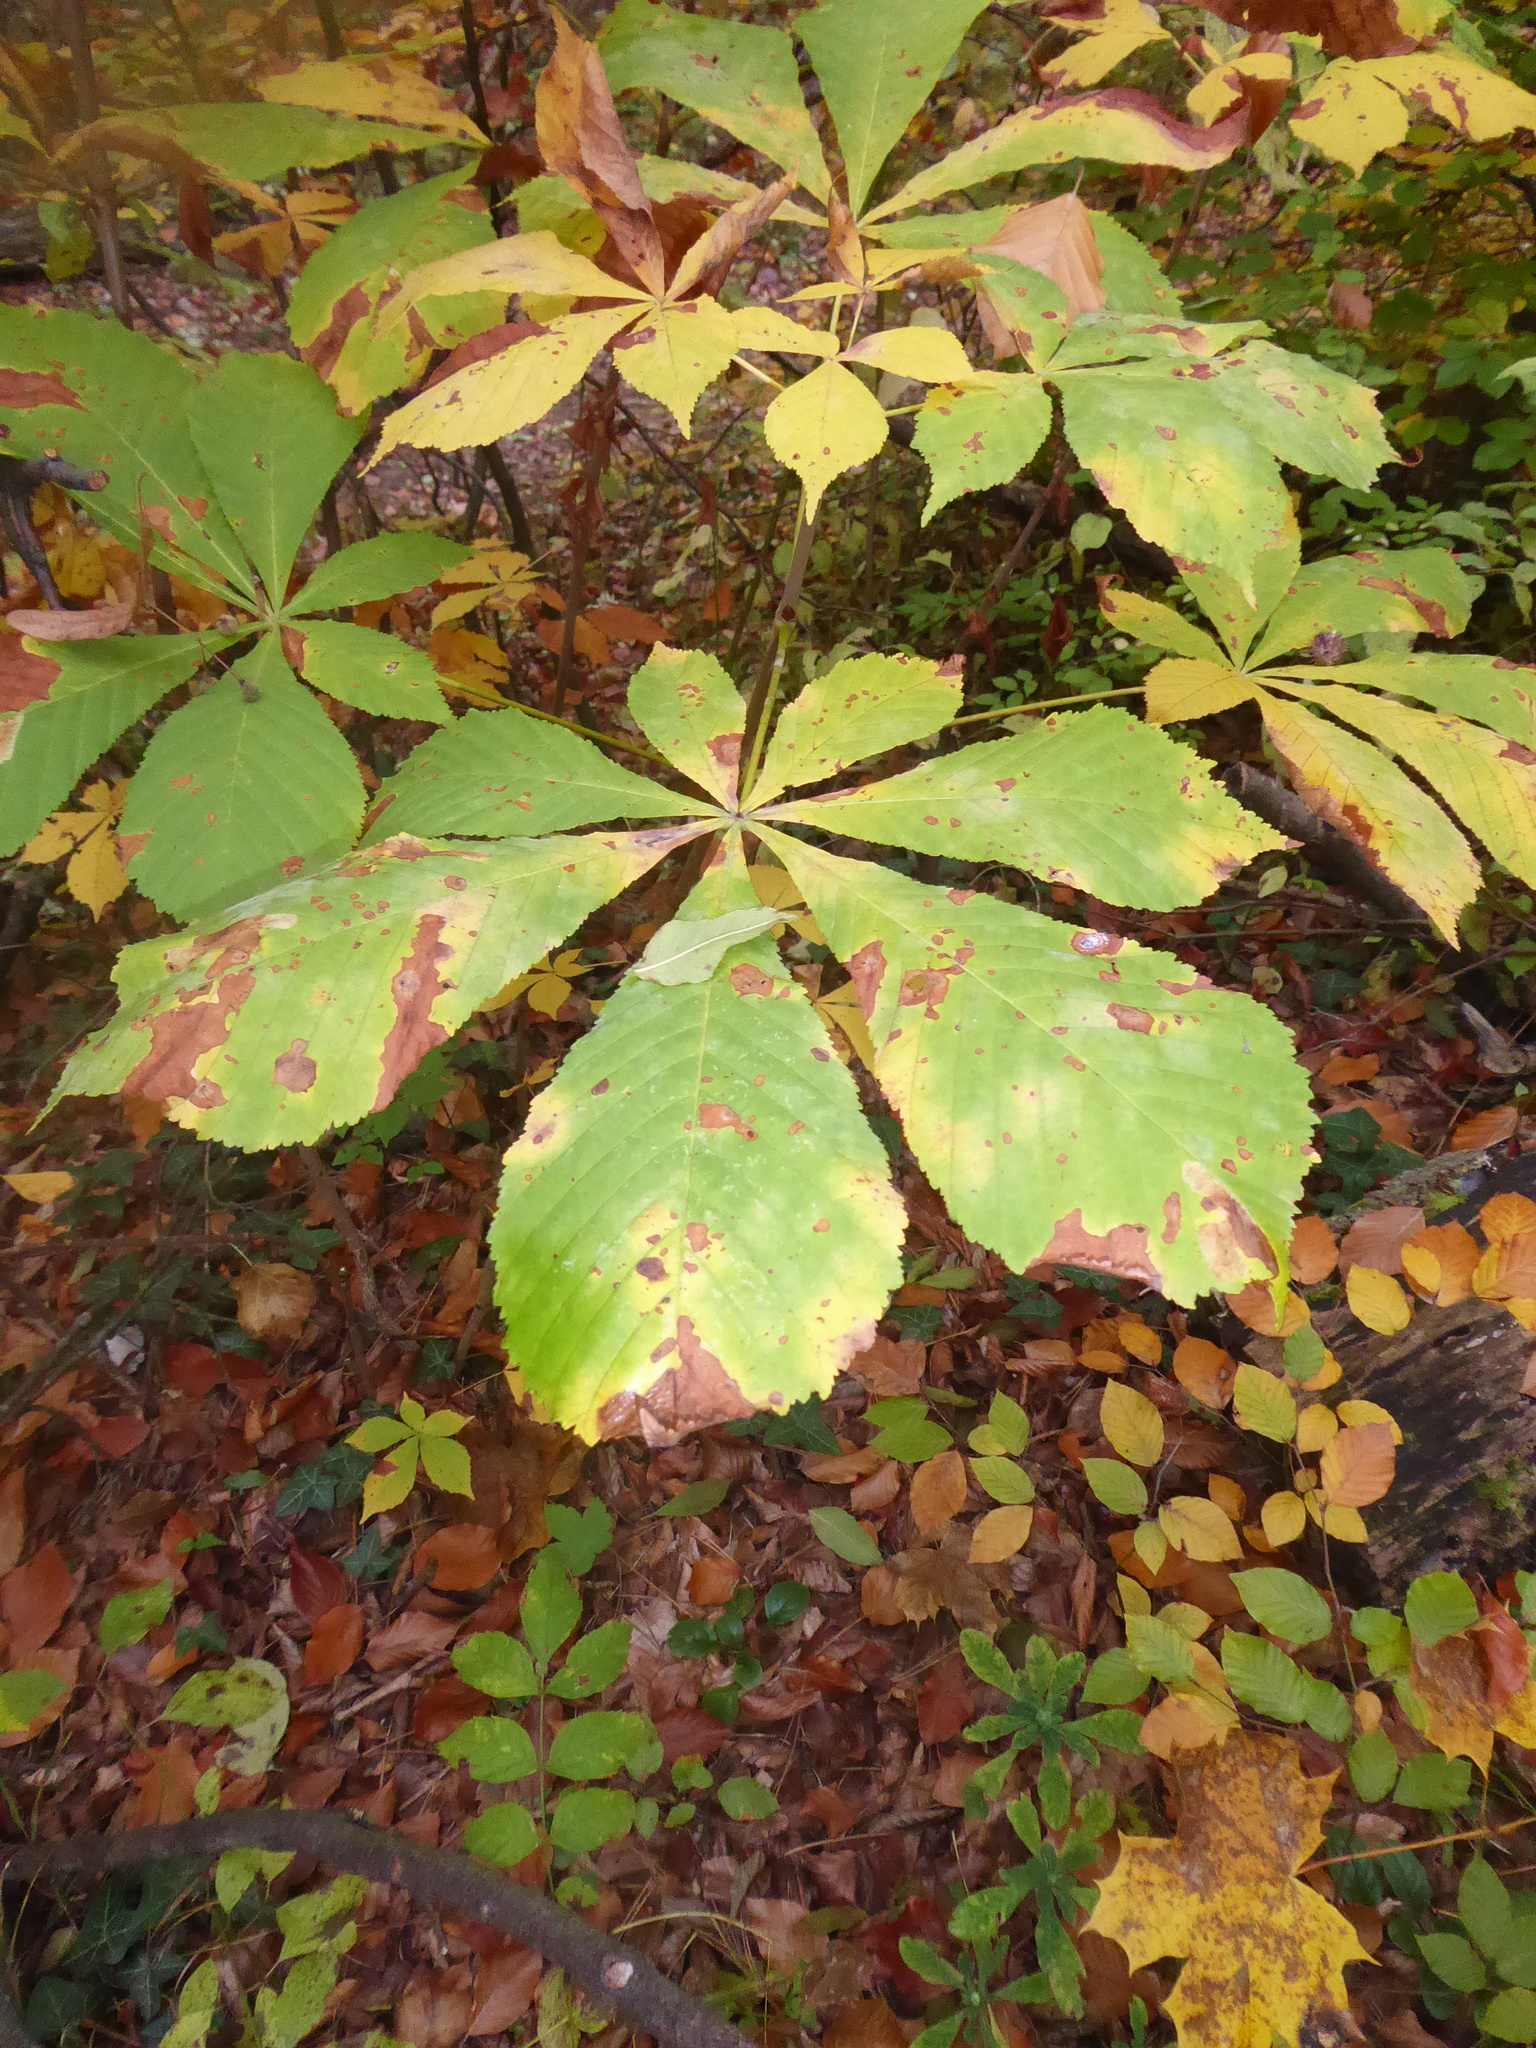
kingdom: Plantae
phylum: Tracheophyta
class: Magnoliopsida
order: Sapindales
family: Sapindaceae
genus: Aesculus
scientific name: Aesculus hippocastanum
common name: Horse-chestnut
